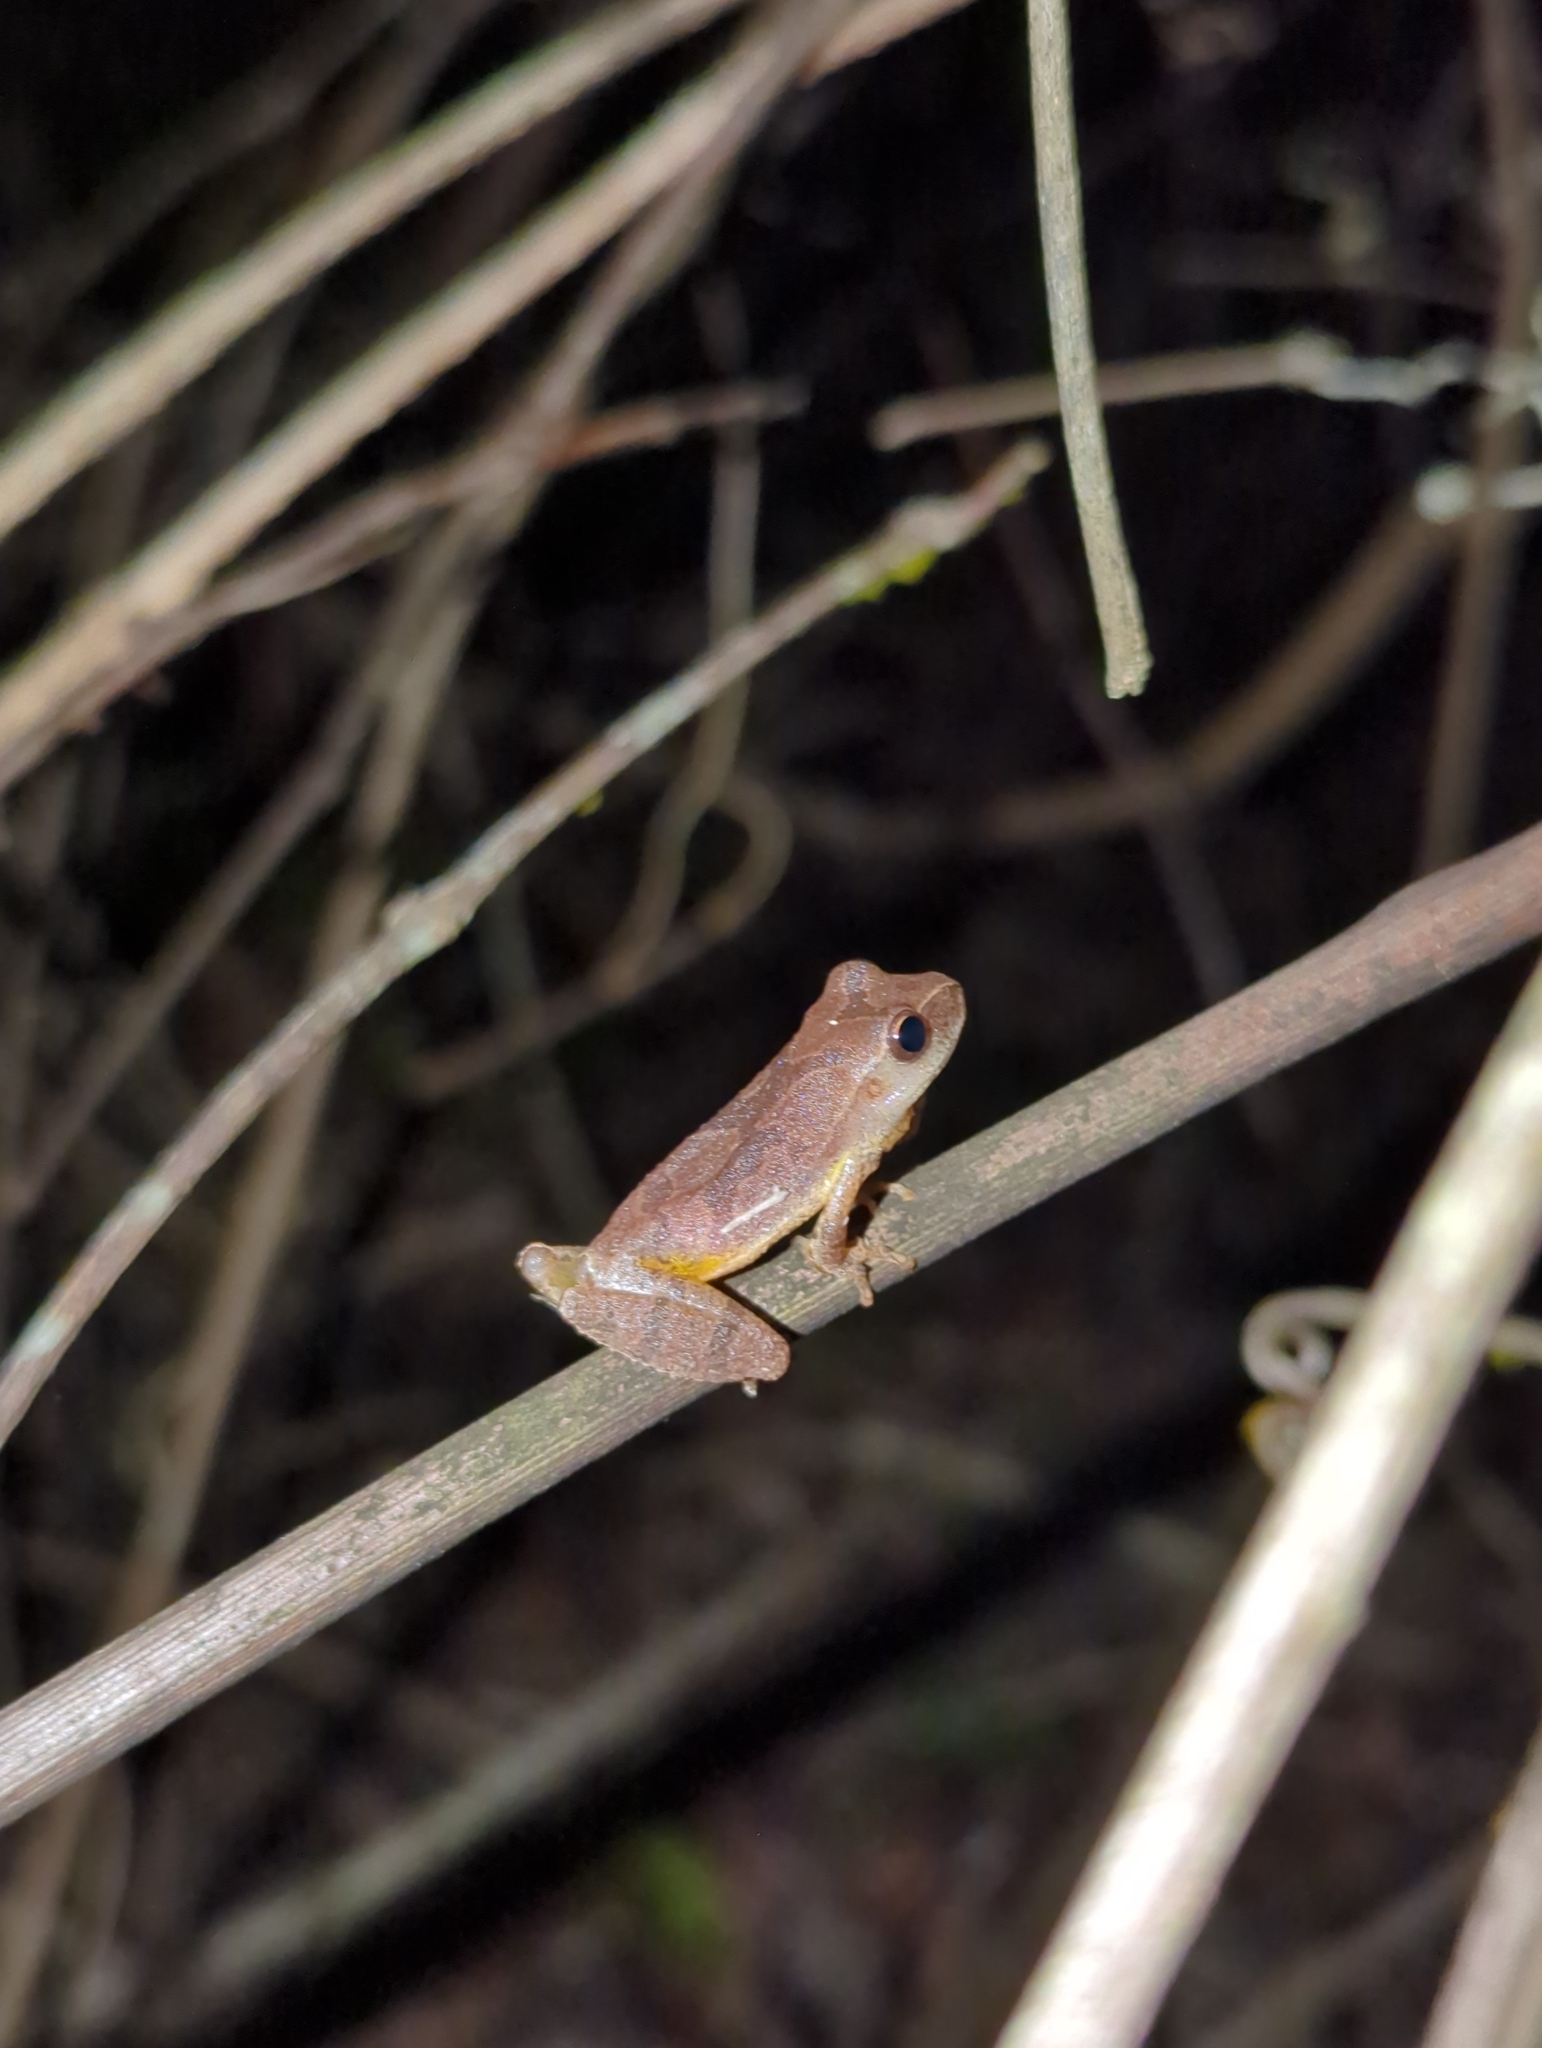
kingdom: Animalia
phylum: Chordata
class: Amphibia
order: Anura
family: Hylidae
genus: Pseudacris
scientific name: Pseudacris crucifer
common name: Spring peeper
